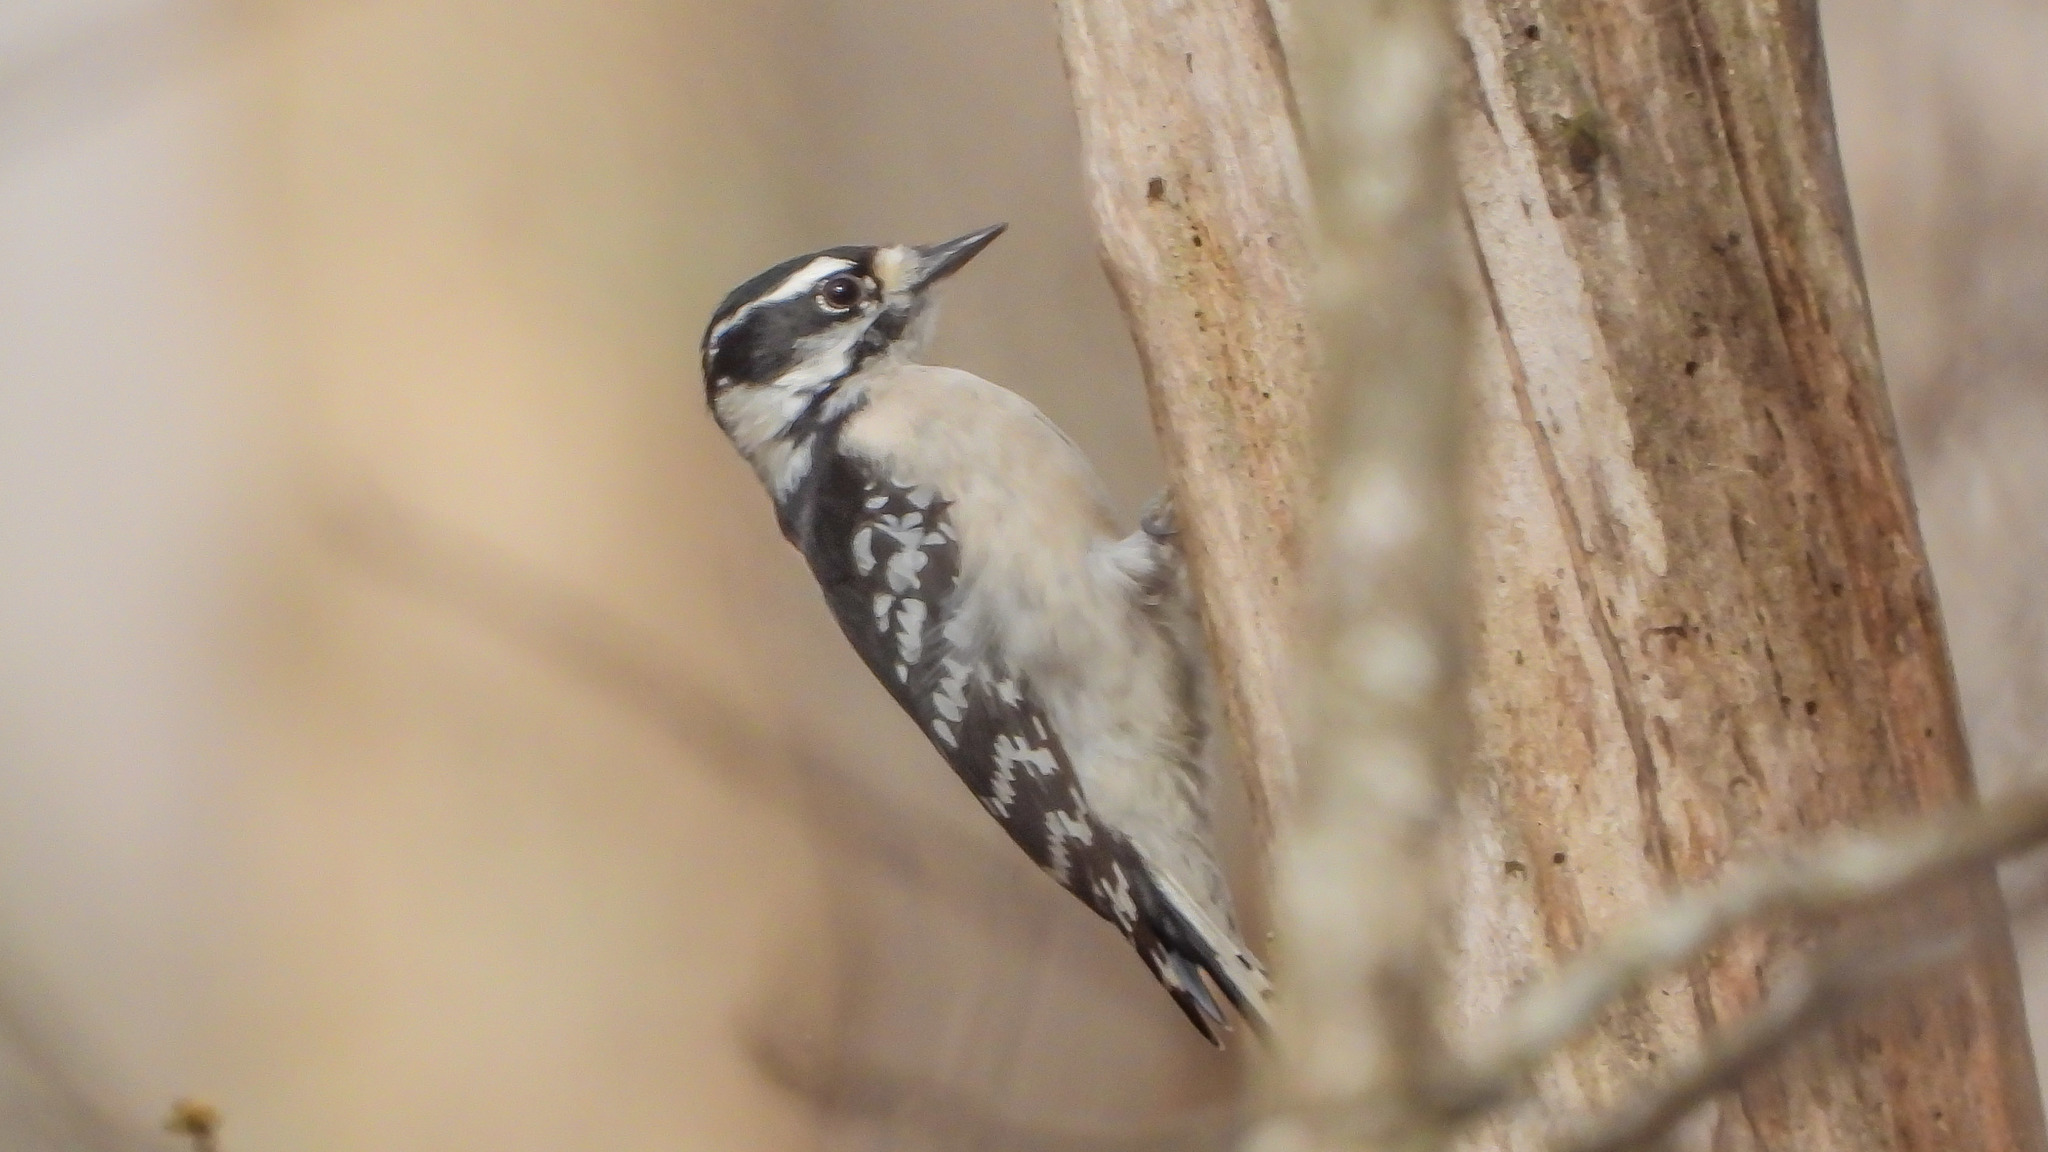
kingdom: Animalia
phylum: Chordata
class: Aves
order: Piciformes
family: Picidae
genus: Dryobates
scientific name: Dryobates pubescens
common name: Downy woodpecker
